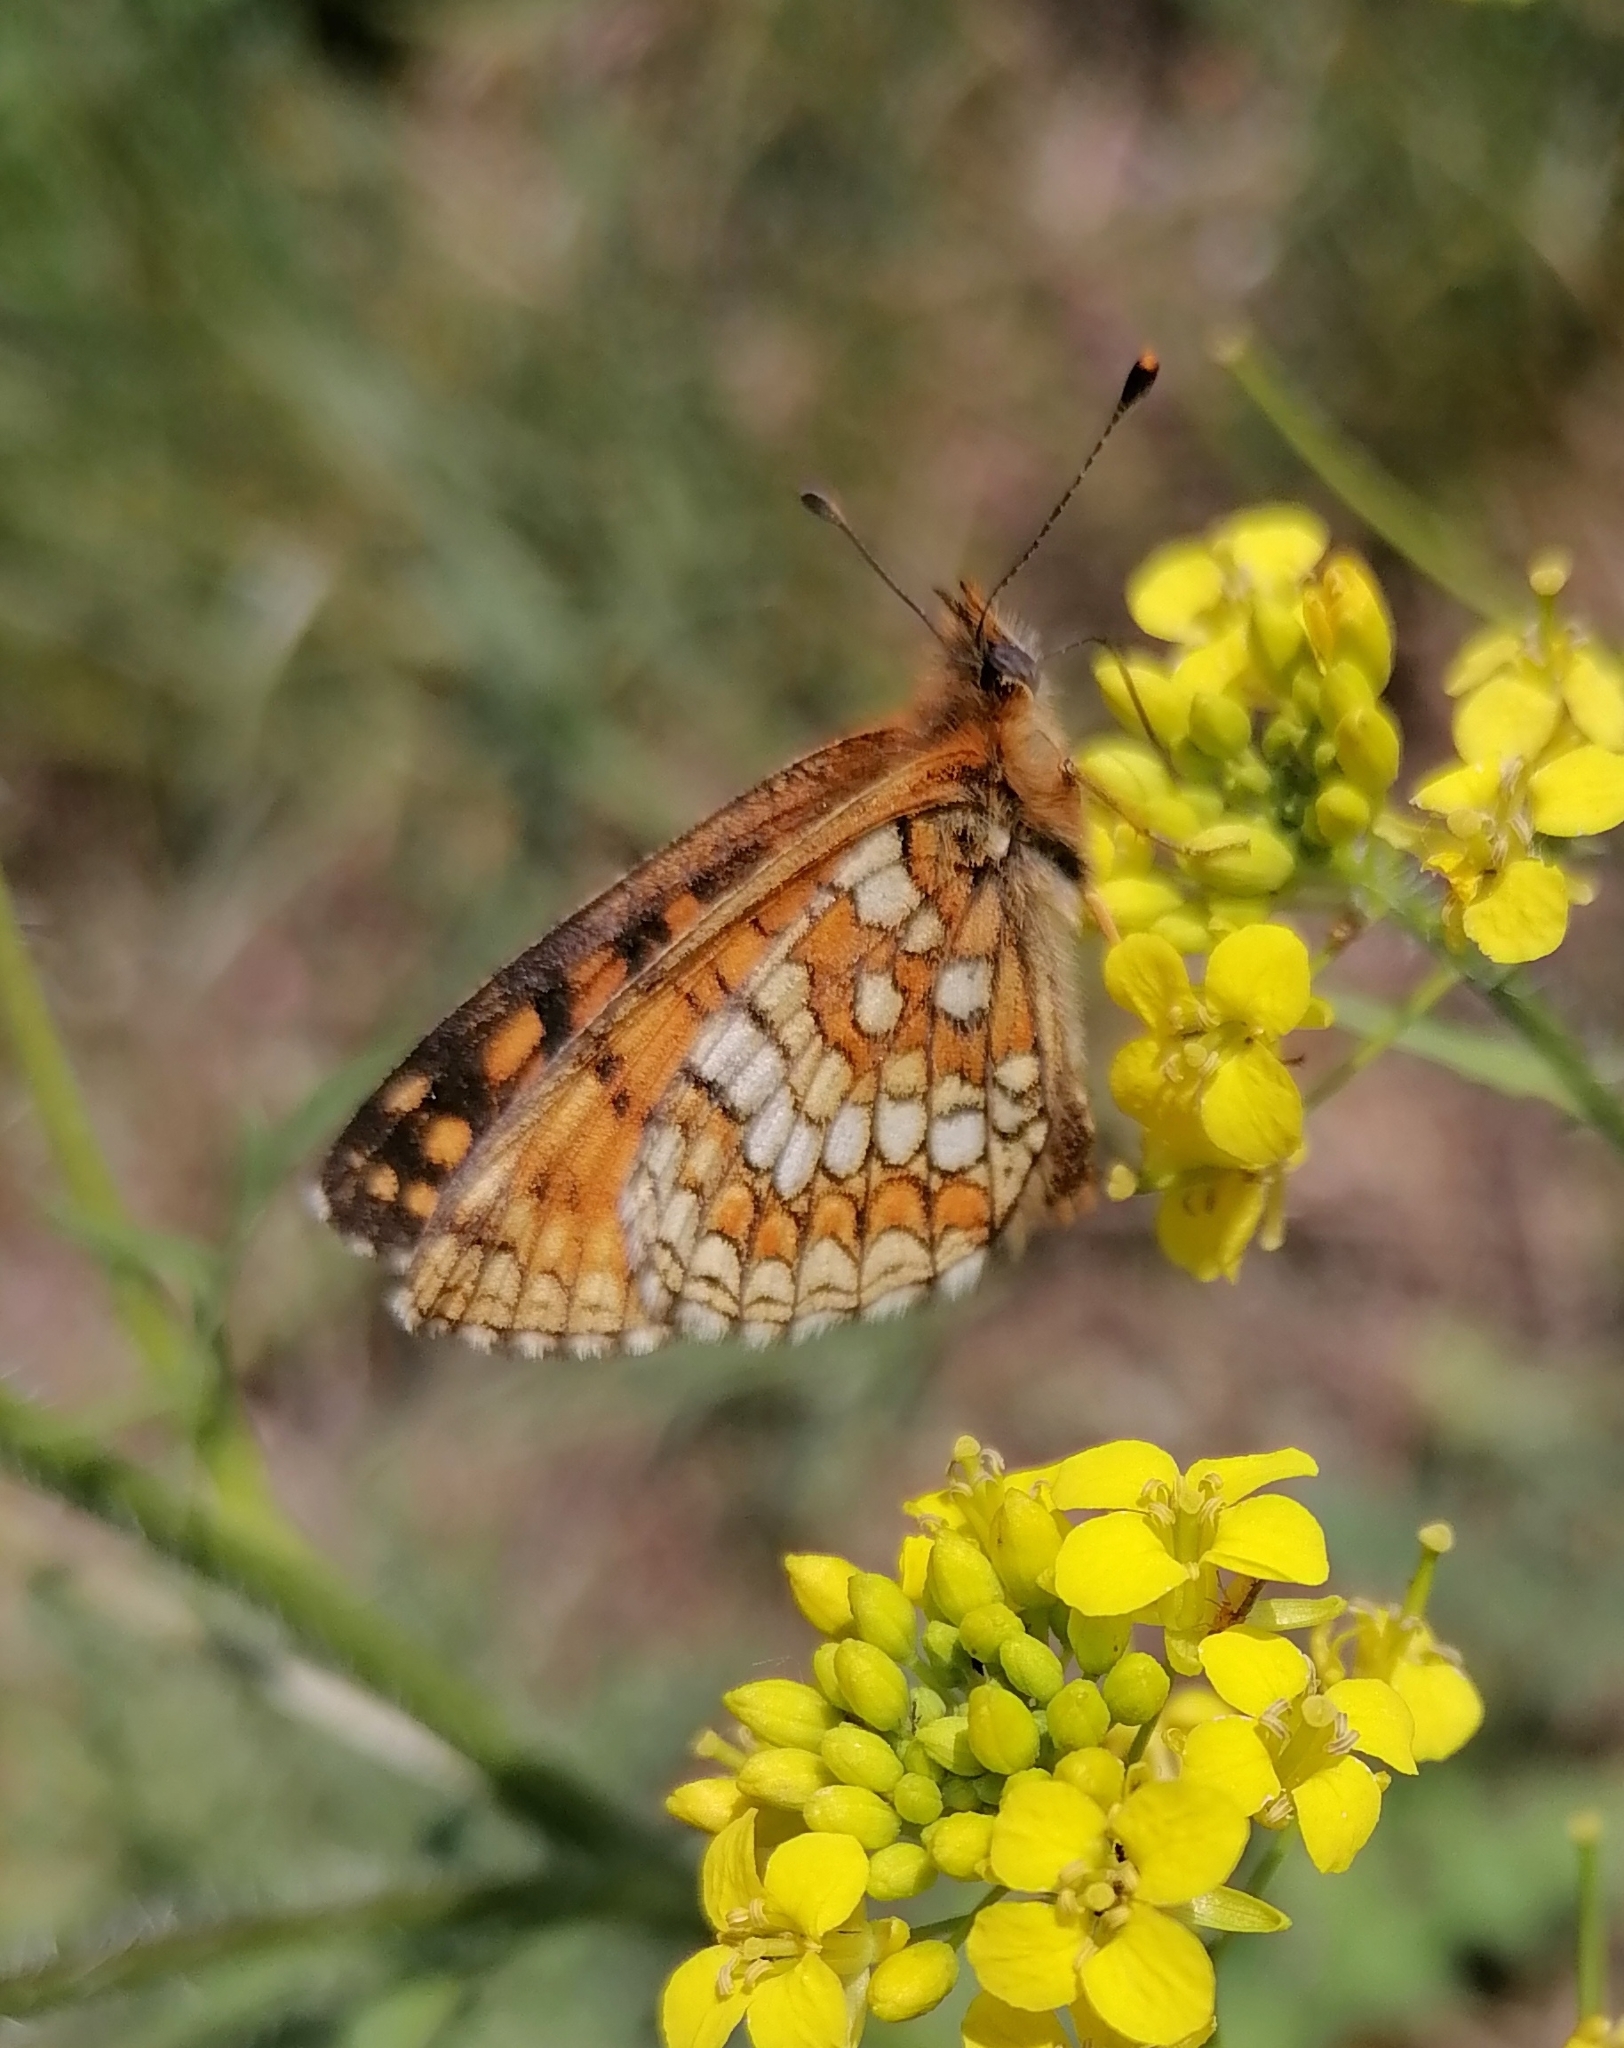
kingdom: Animalia
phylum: Arthropoda
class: Insecta
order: Lepidoptera
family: Nymphalidae
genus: Melitaea
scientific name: Melitaea athalia
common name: Heath fritillary
